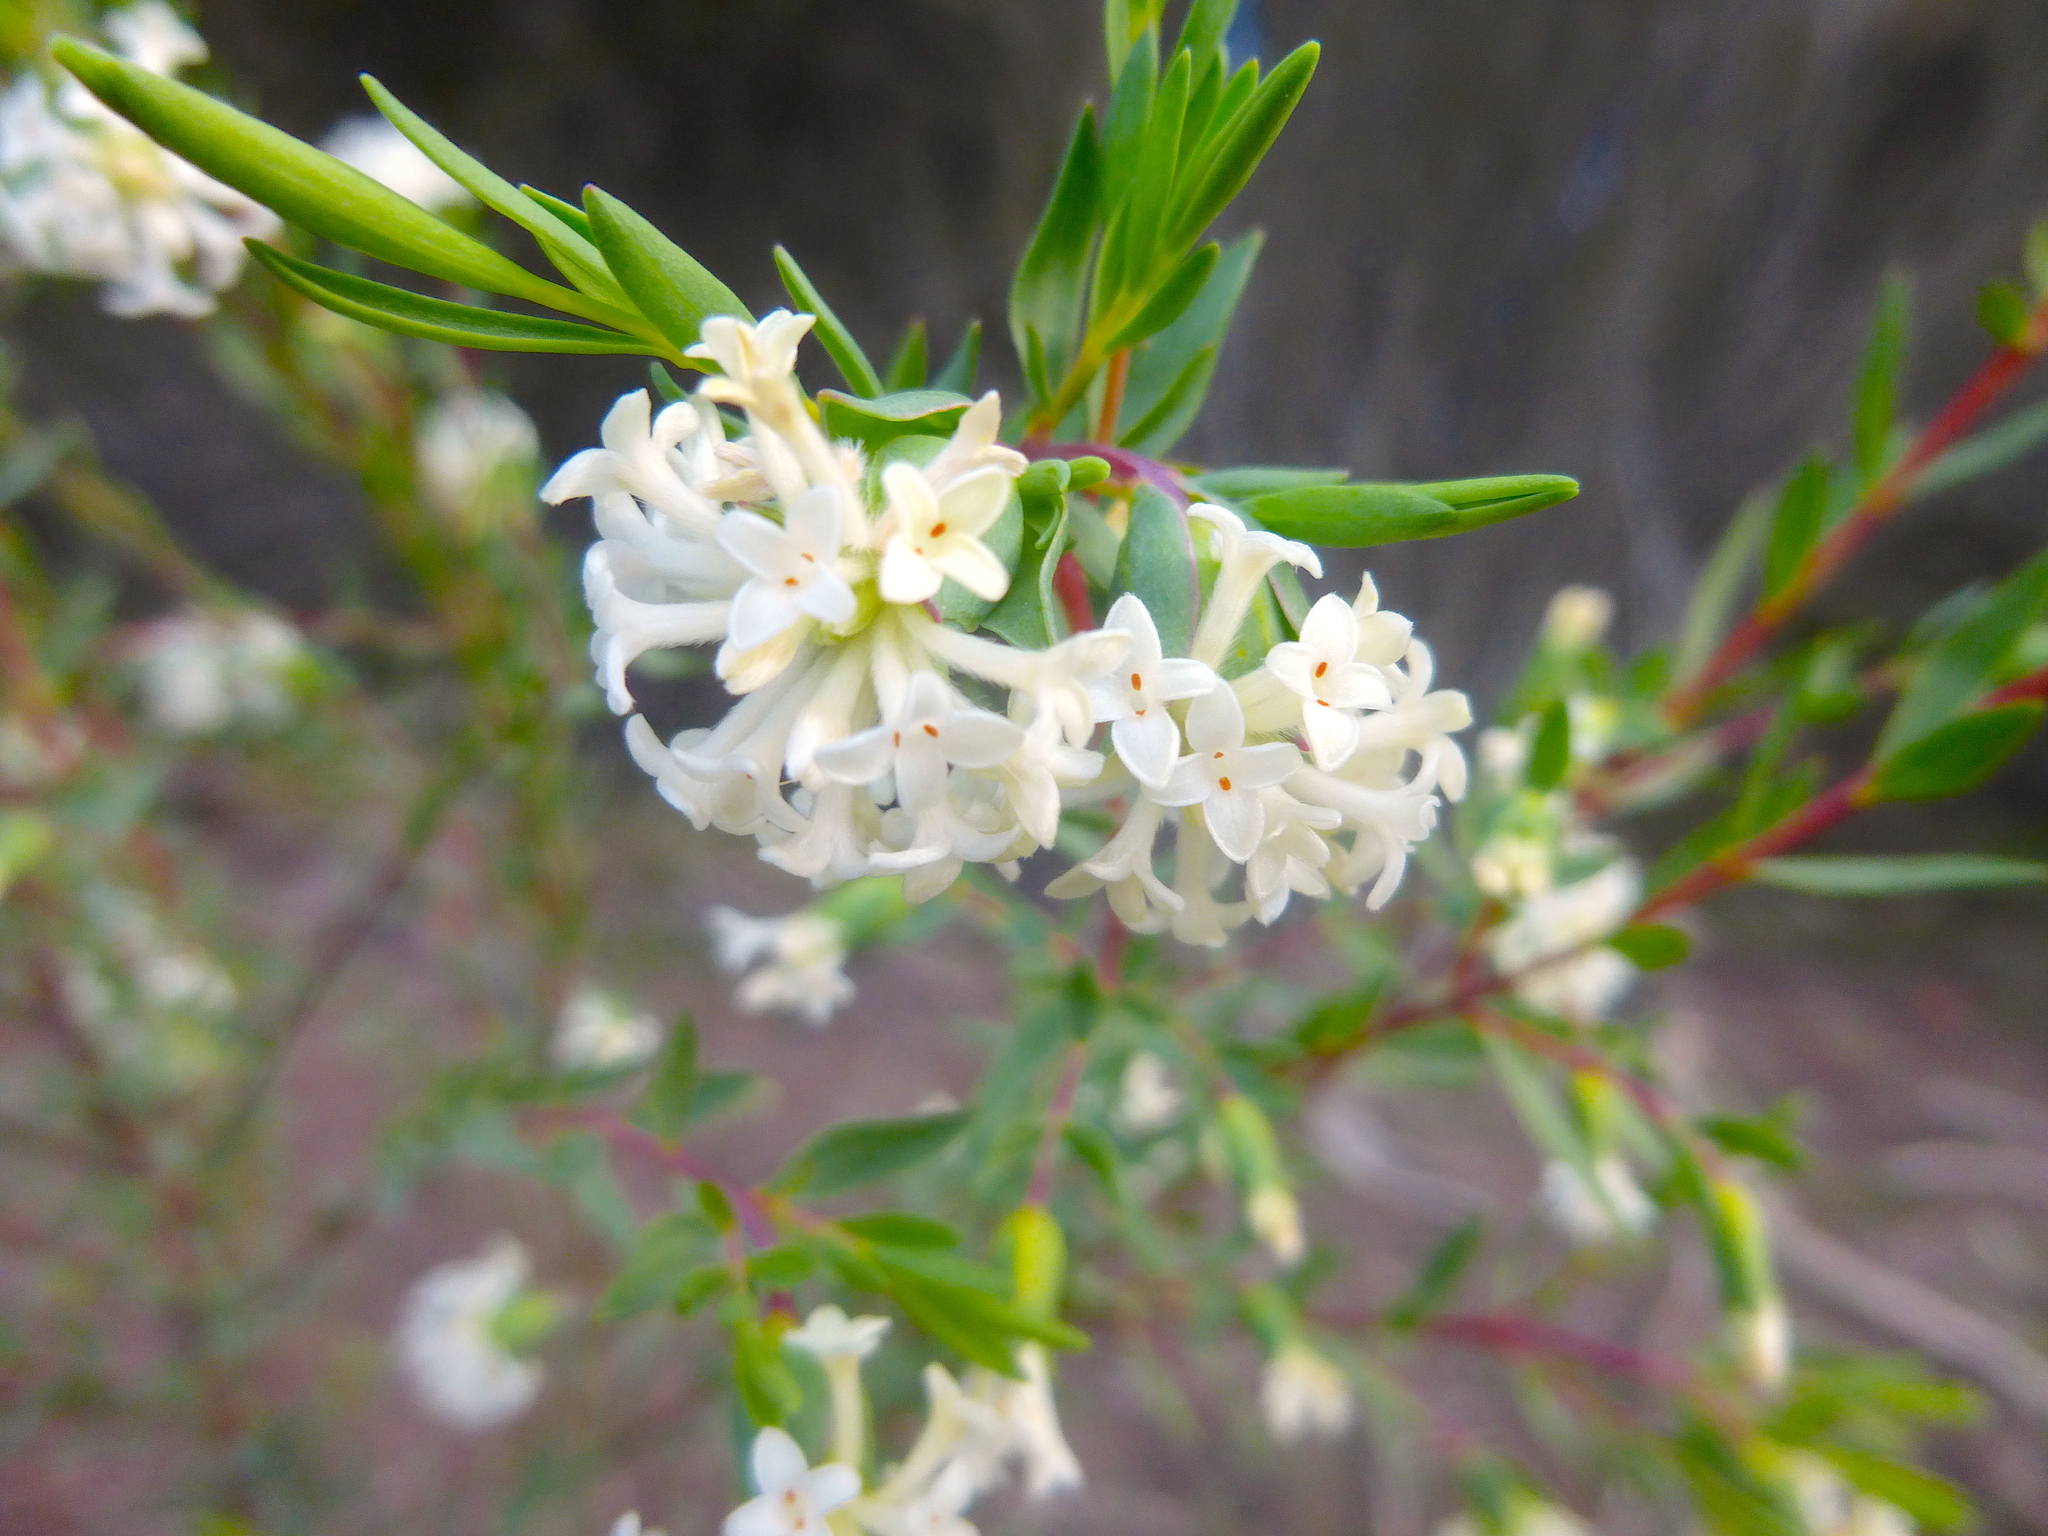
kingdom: Plantae
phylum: Tracheophyta
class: Magnoliopsida
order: Malvales
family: Thymelaeaceae
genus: Pimelea
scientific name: Pimelea stricta
